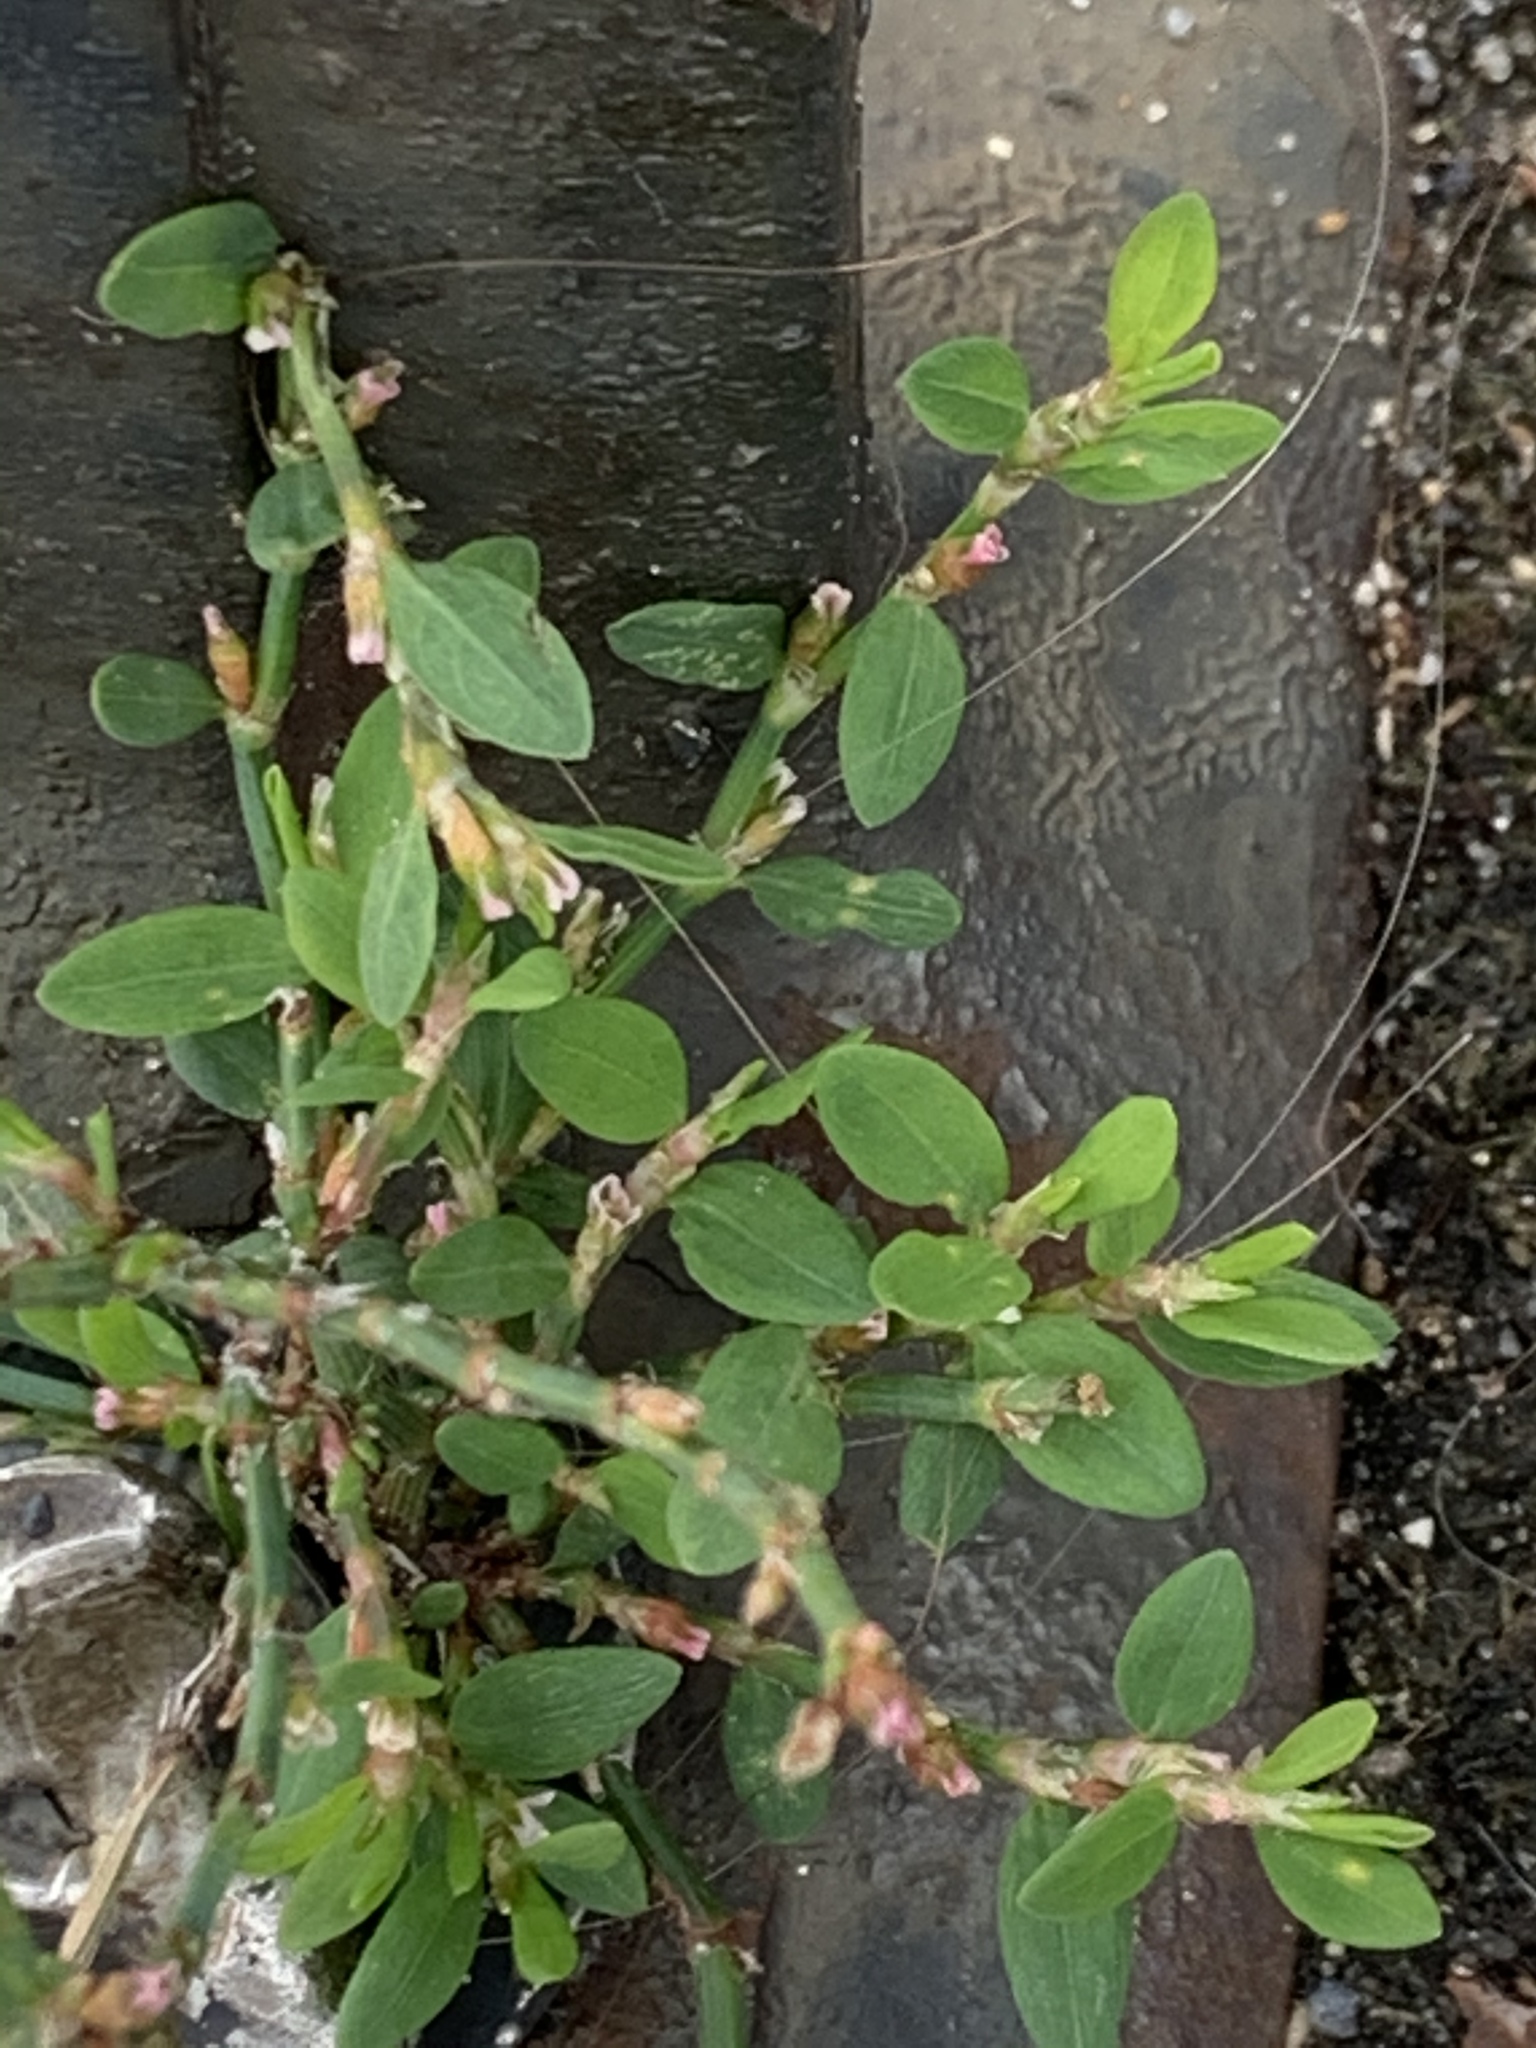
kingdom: Plantae
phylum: Tracheophyta
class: Magnoliopsida
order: Caryophyllales
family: Polygonaceae
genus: Polygonum
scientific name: Polygonum aviculare
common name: Prostrate knotweed
